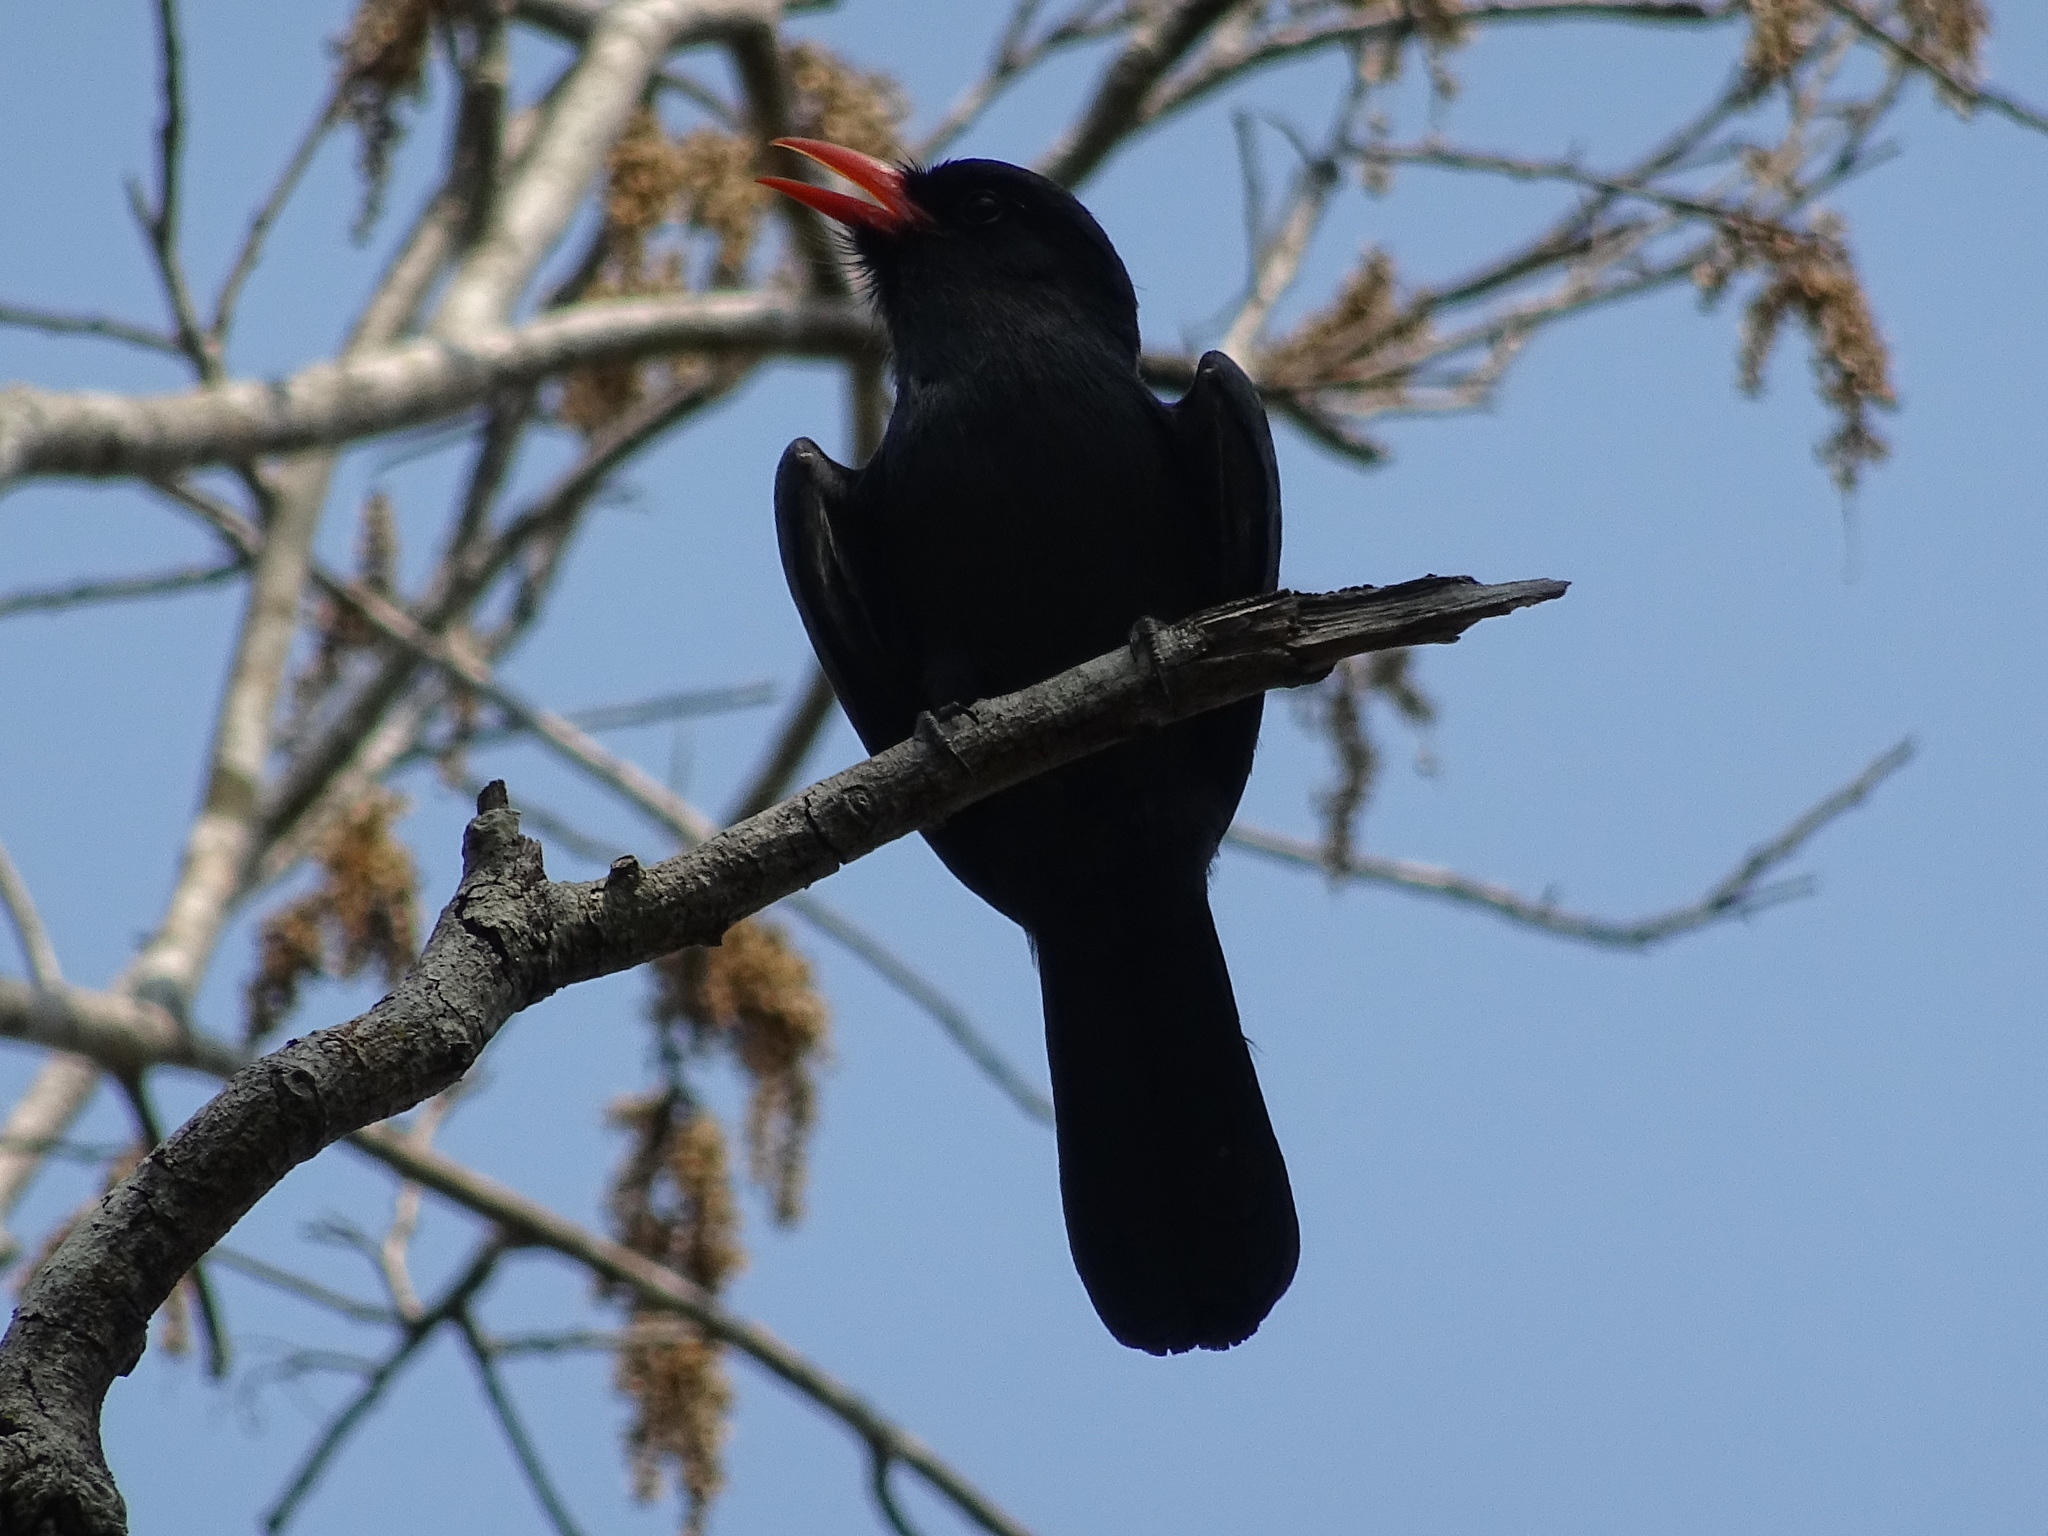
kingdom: Animalia
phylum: Chordata
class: Aves
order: Piciformes
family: Bucconidae
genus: Monasa
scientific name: Monasa nigrifrons
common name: Black-fronted nunbird
